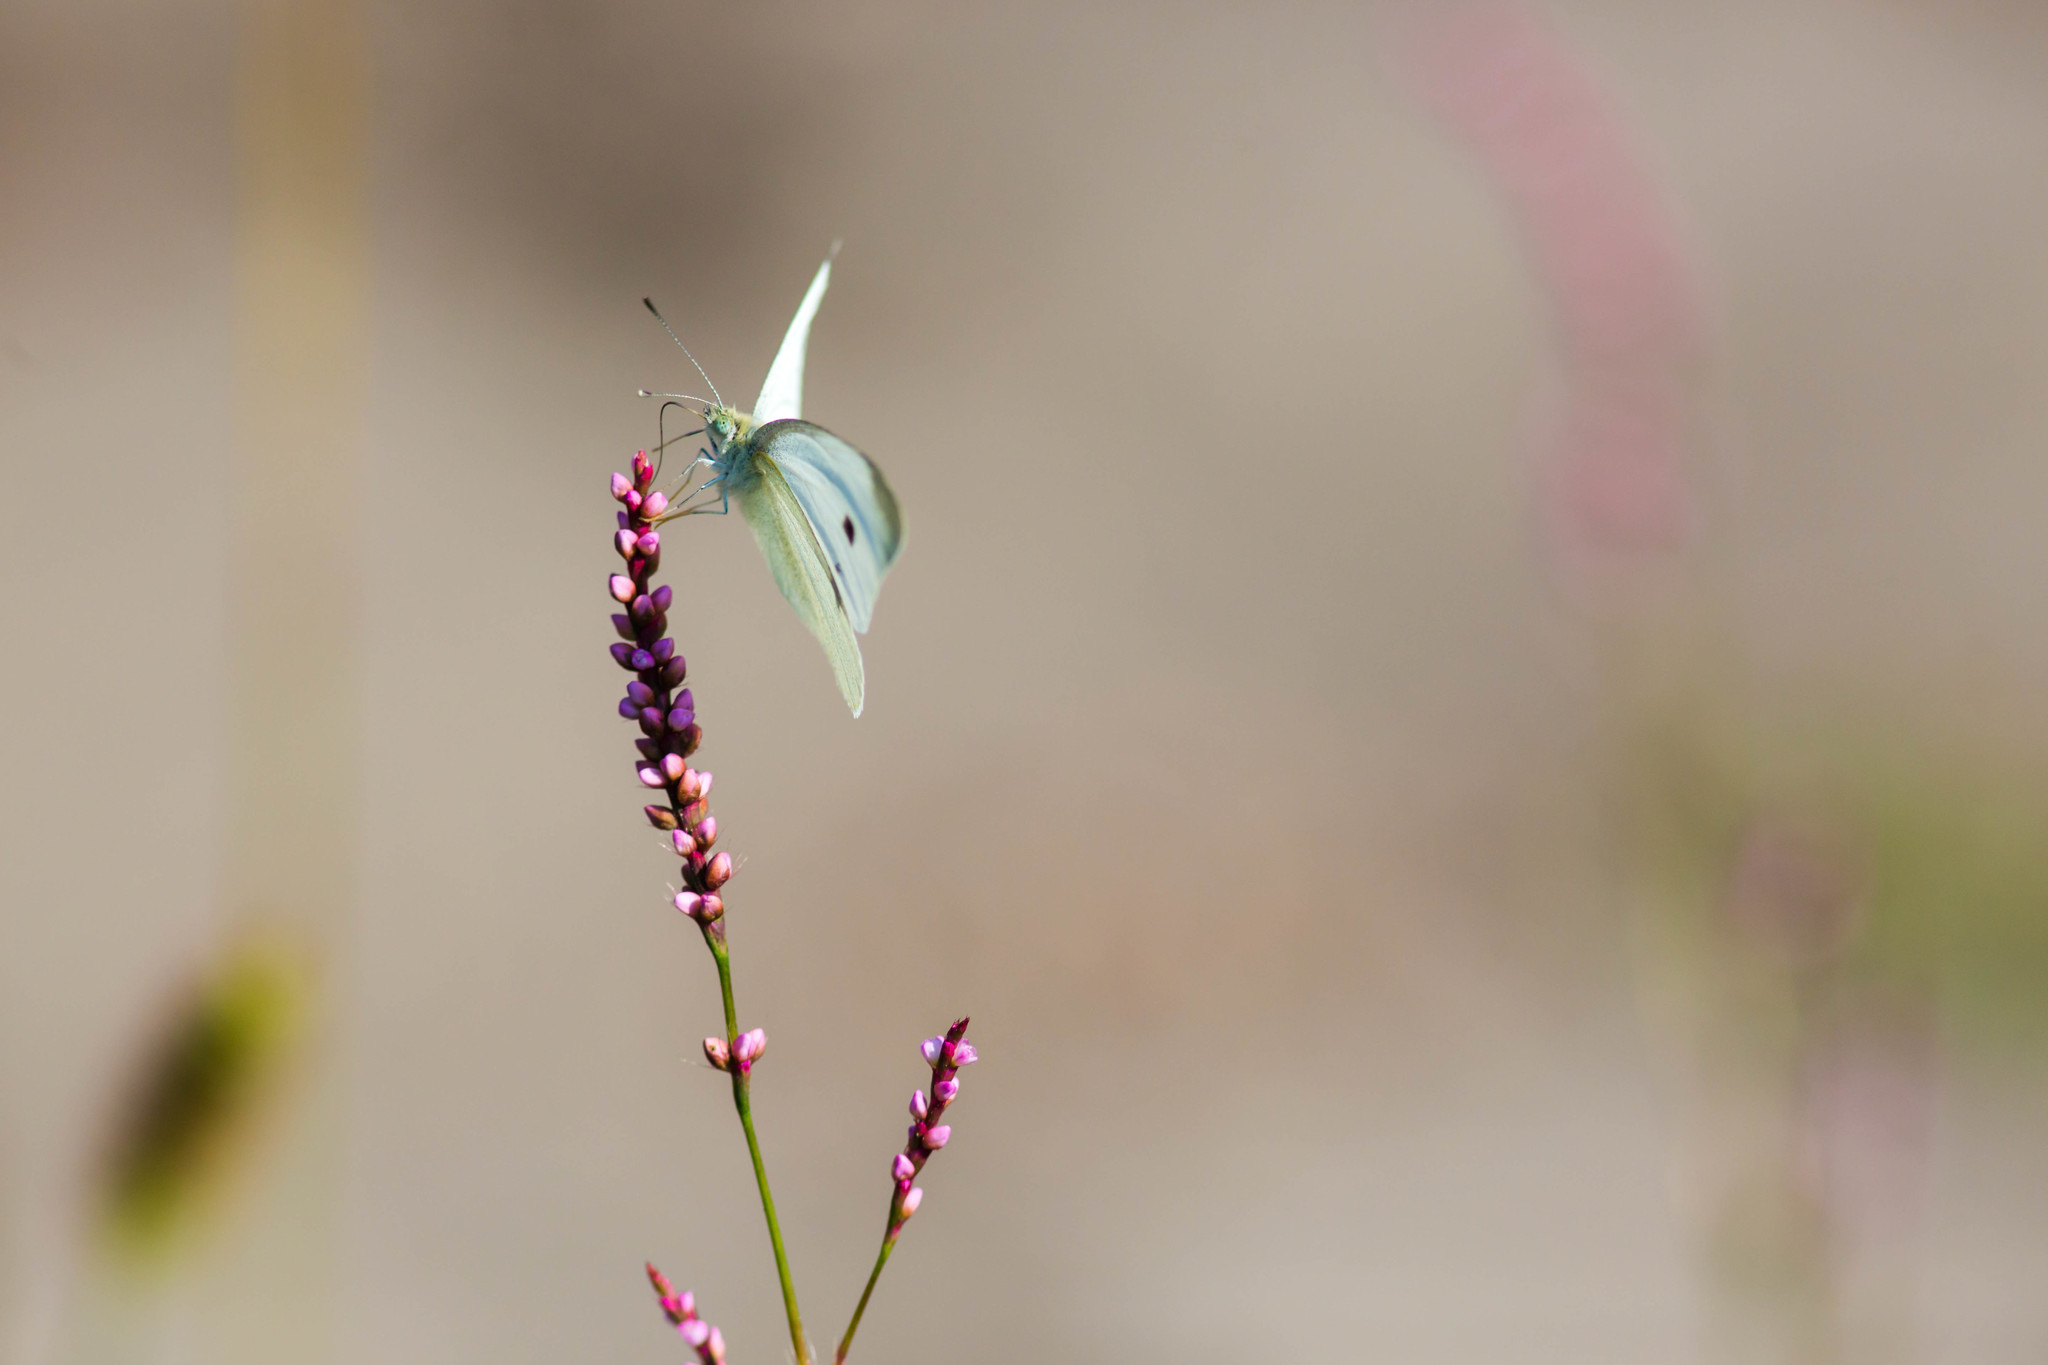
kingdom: Animalia
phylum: Arthropoda
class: Insecta
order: Lepidoptera
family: Pieridae
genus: Pieris
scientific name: Pieris rapae
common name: Small white
